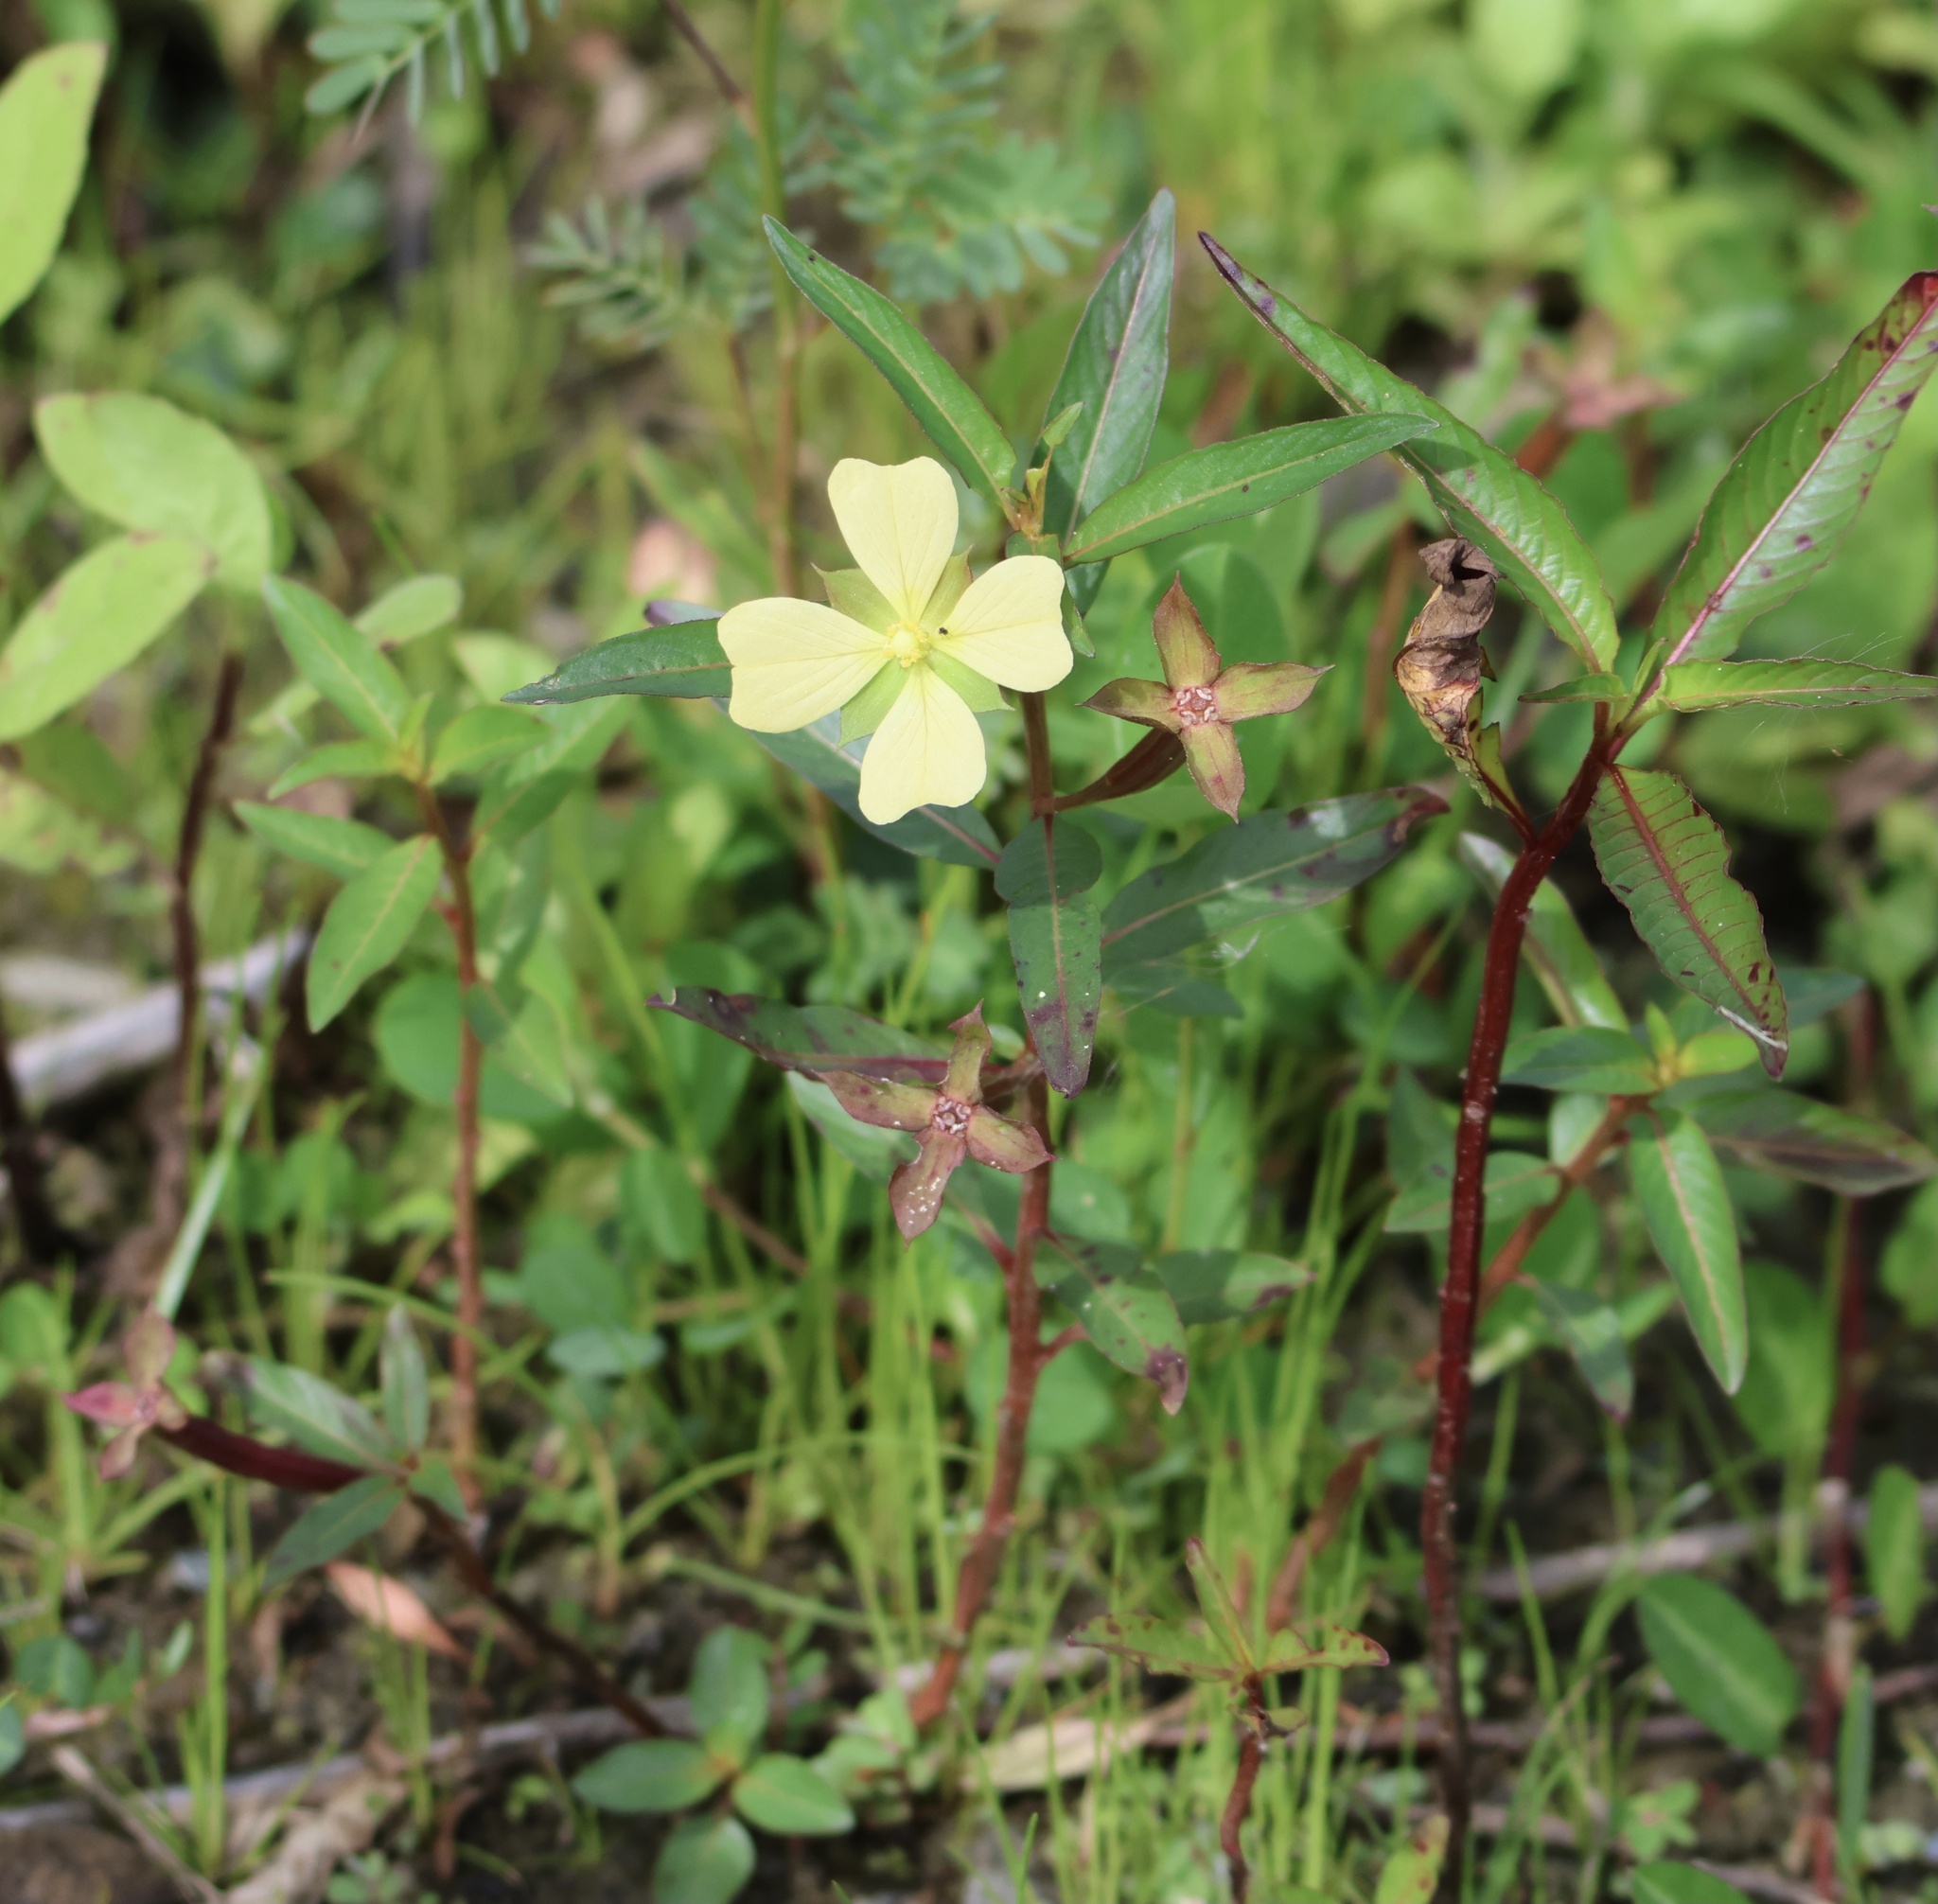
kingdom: Plantae
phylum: Tracheophyta
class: Magnoliopsida
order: Myrtales
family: Onagraceae
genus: Ludwigia
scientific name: Ludwigia octovalvis
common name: Water-primrose
